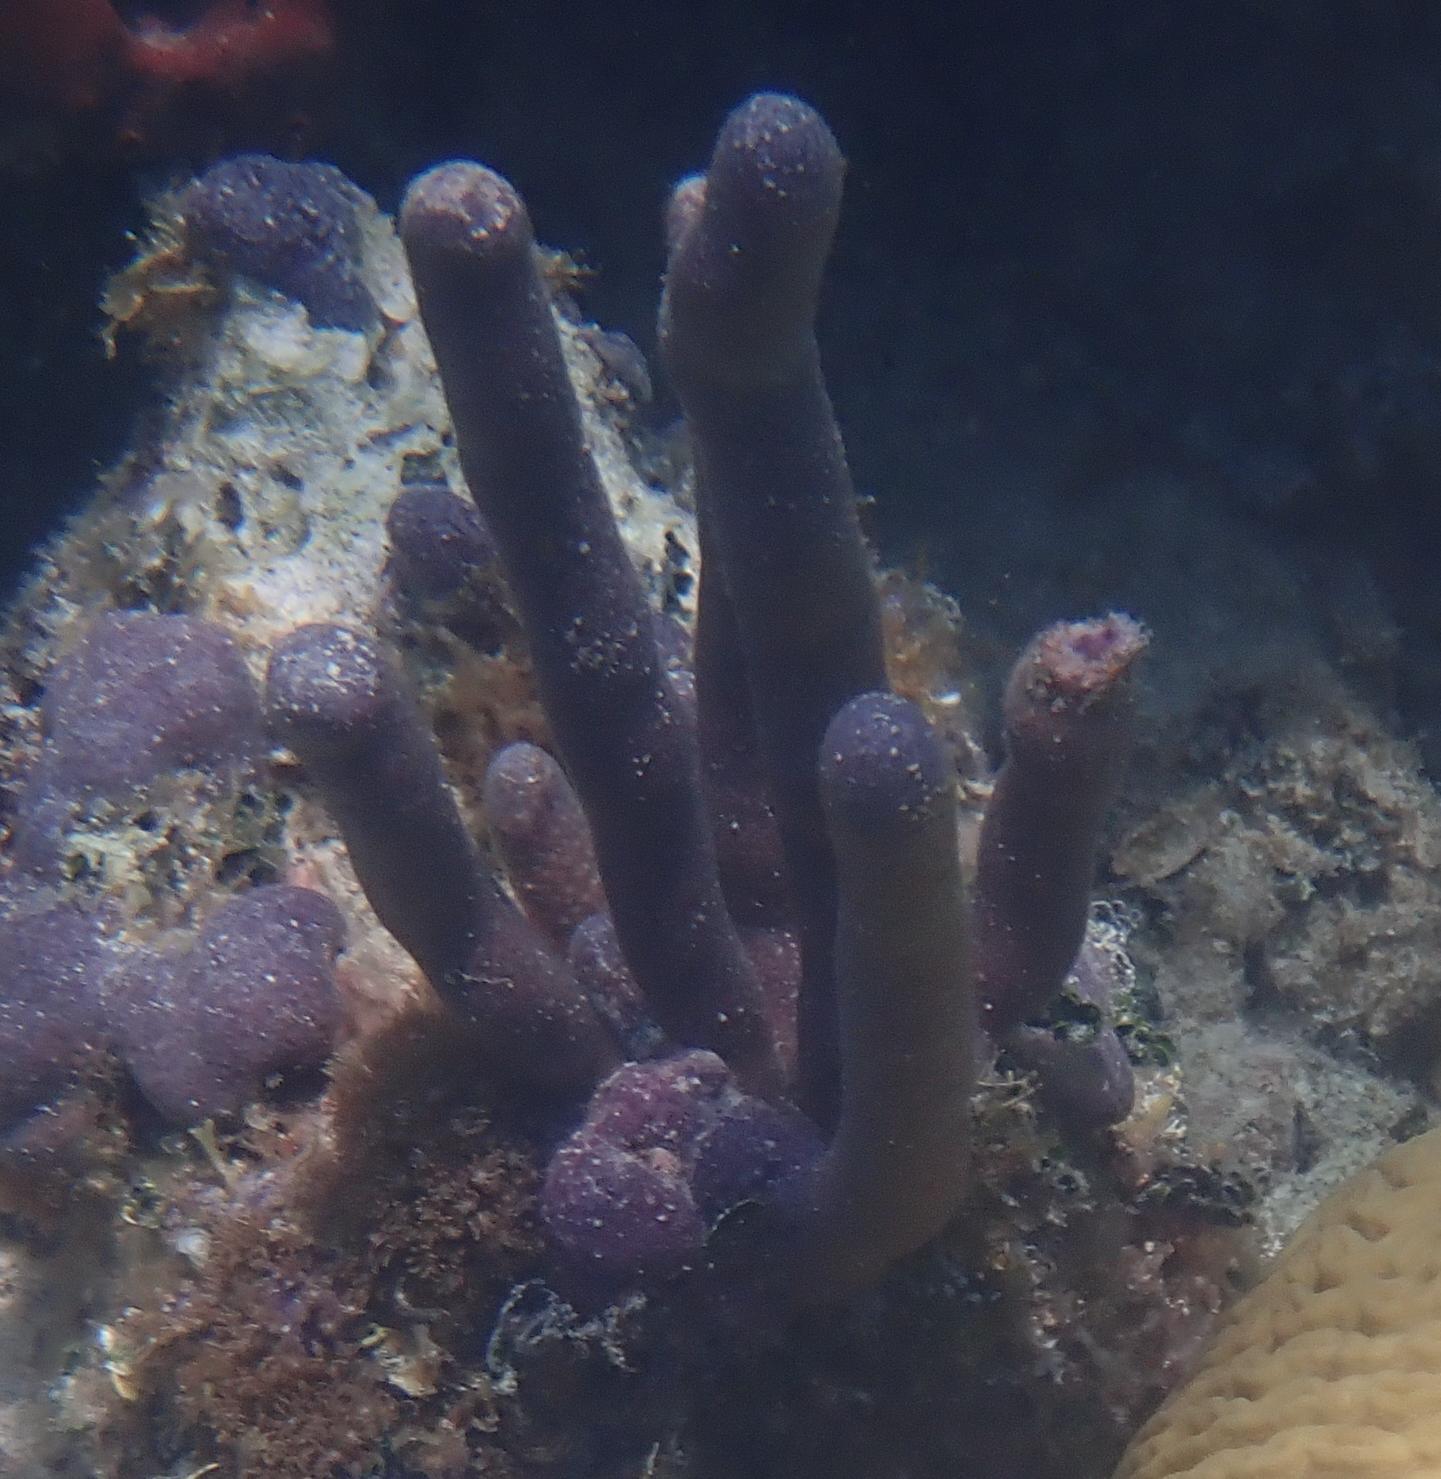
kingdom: Animalia
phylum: Cnidaria
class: Anthozoa
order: Scleralcyonacea
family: Briareidae
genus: Briareum
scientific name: Briareum asbestinum
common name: Corky sea finger
